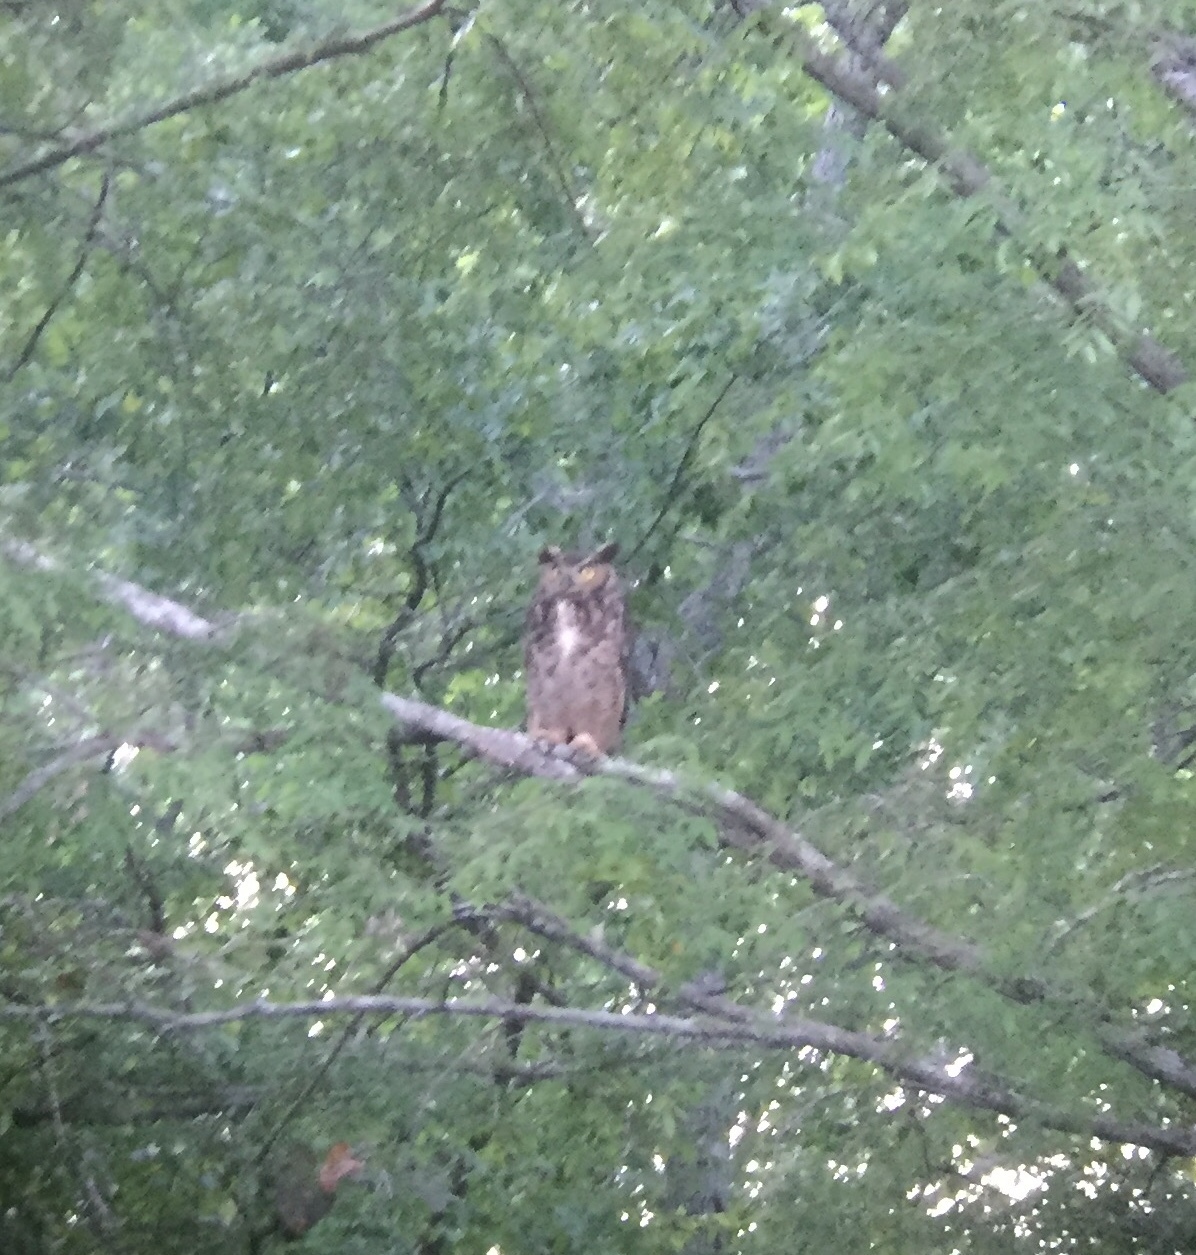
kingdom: Animalia
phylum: Chordata
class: Aves
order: Strigiformes
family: Strigidae
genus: Bubo
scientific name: Bubo virginianus
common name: Great horned owl
